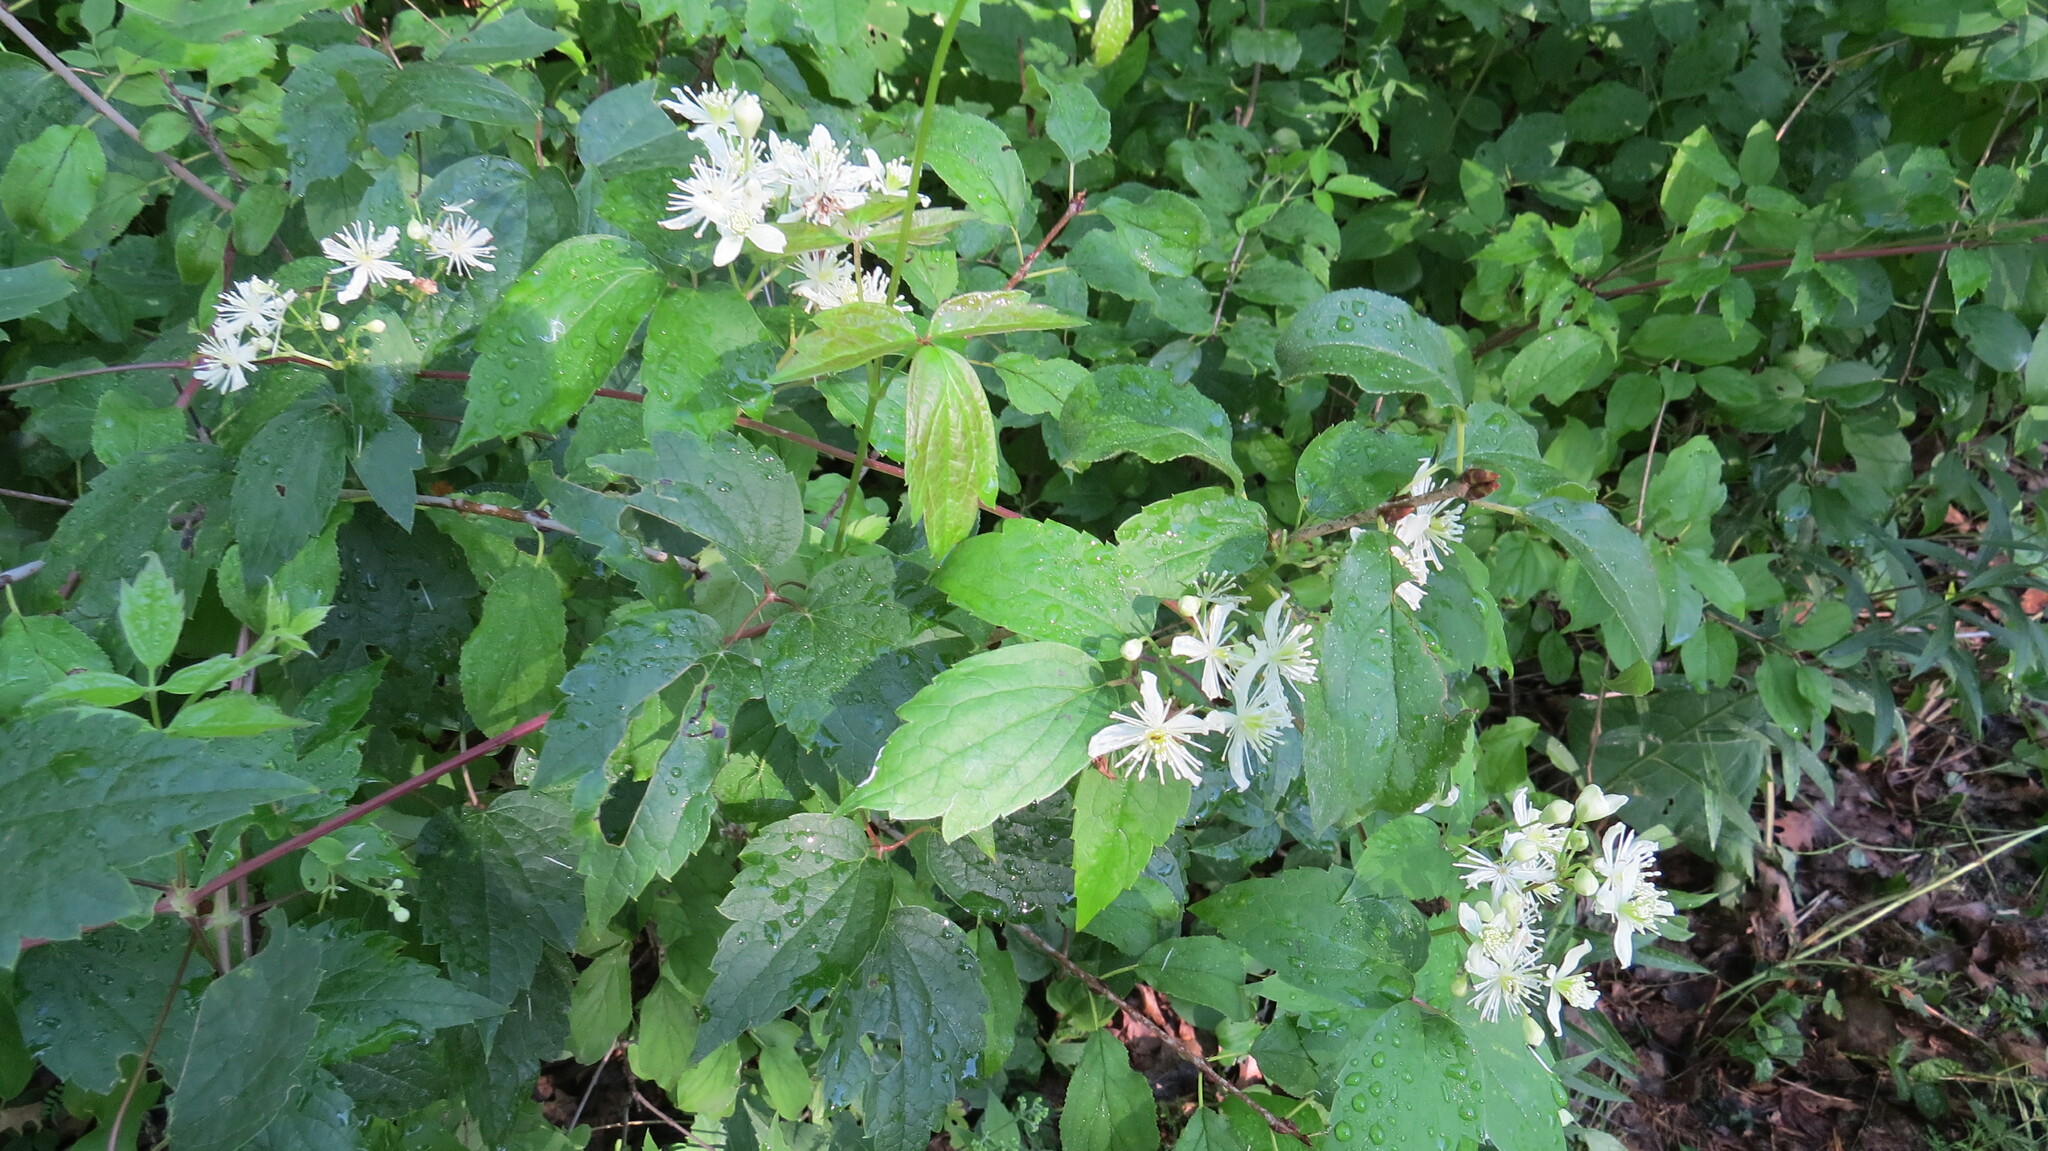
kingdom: Plantae
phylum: Tracheophyta
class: Magnoliopsida
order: Ranunculales
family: Ranunculaceae
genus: Clematis
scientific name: Clematis virginiana
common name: Virgin's-bower
